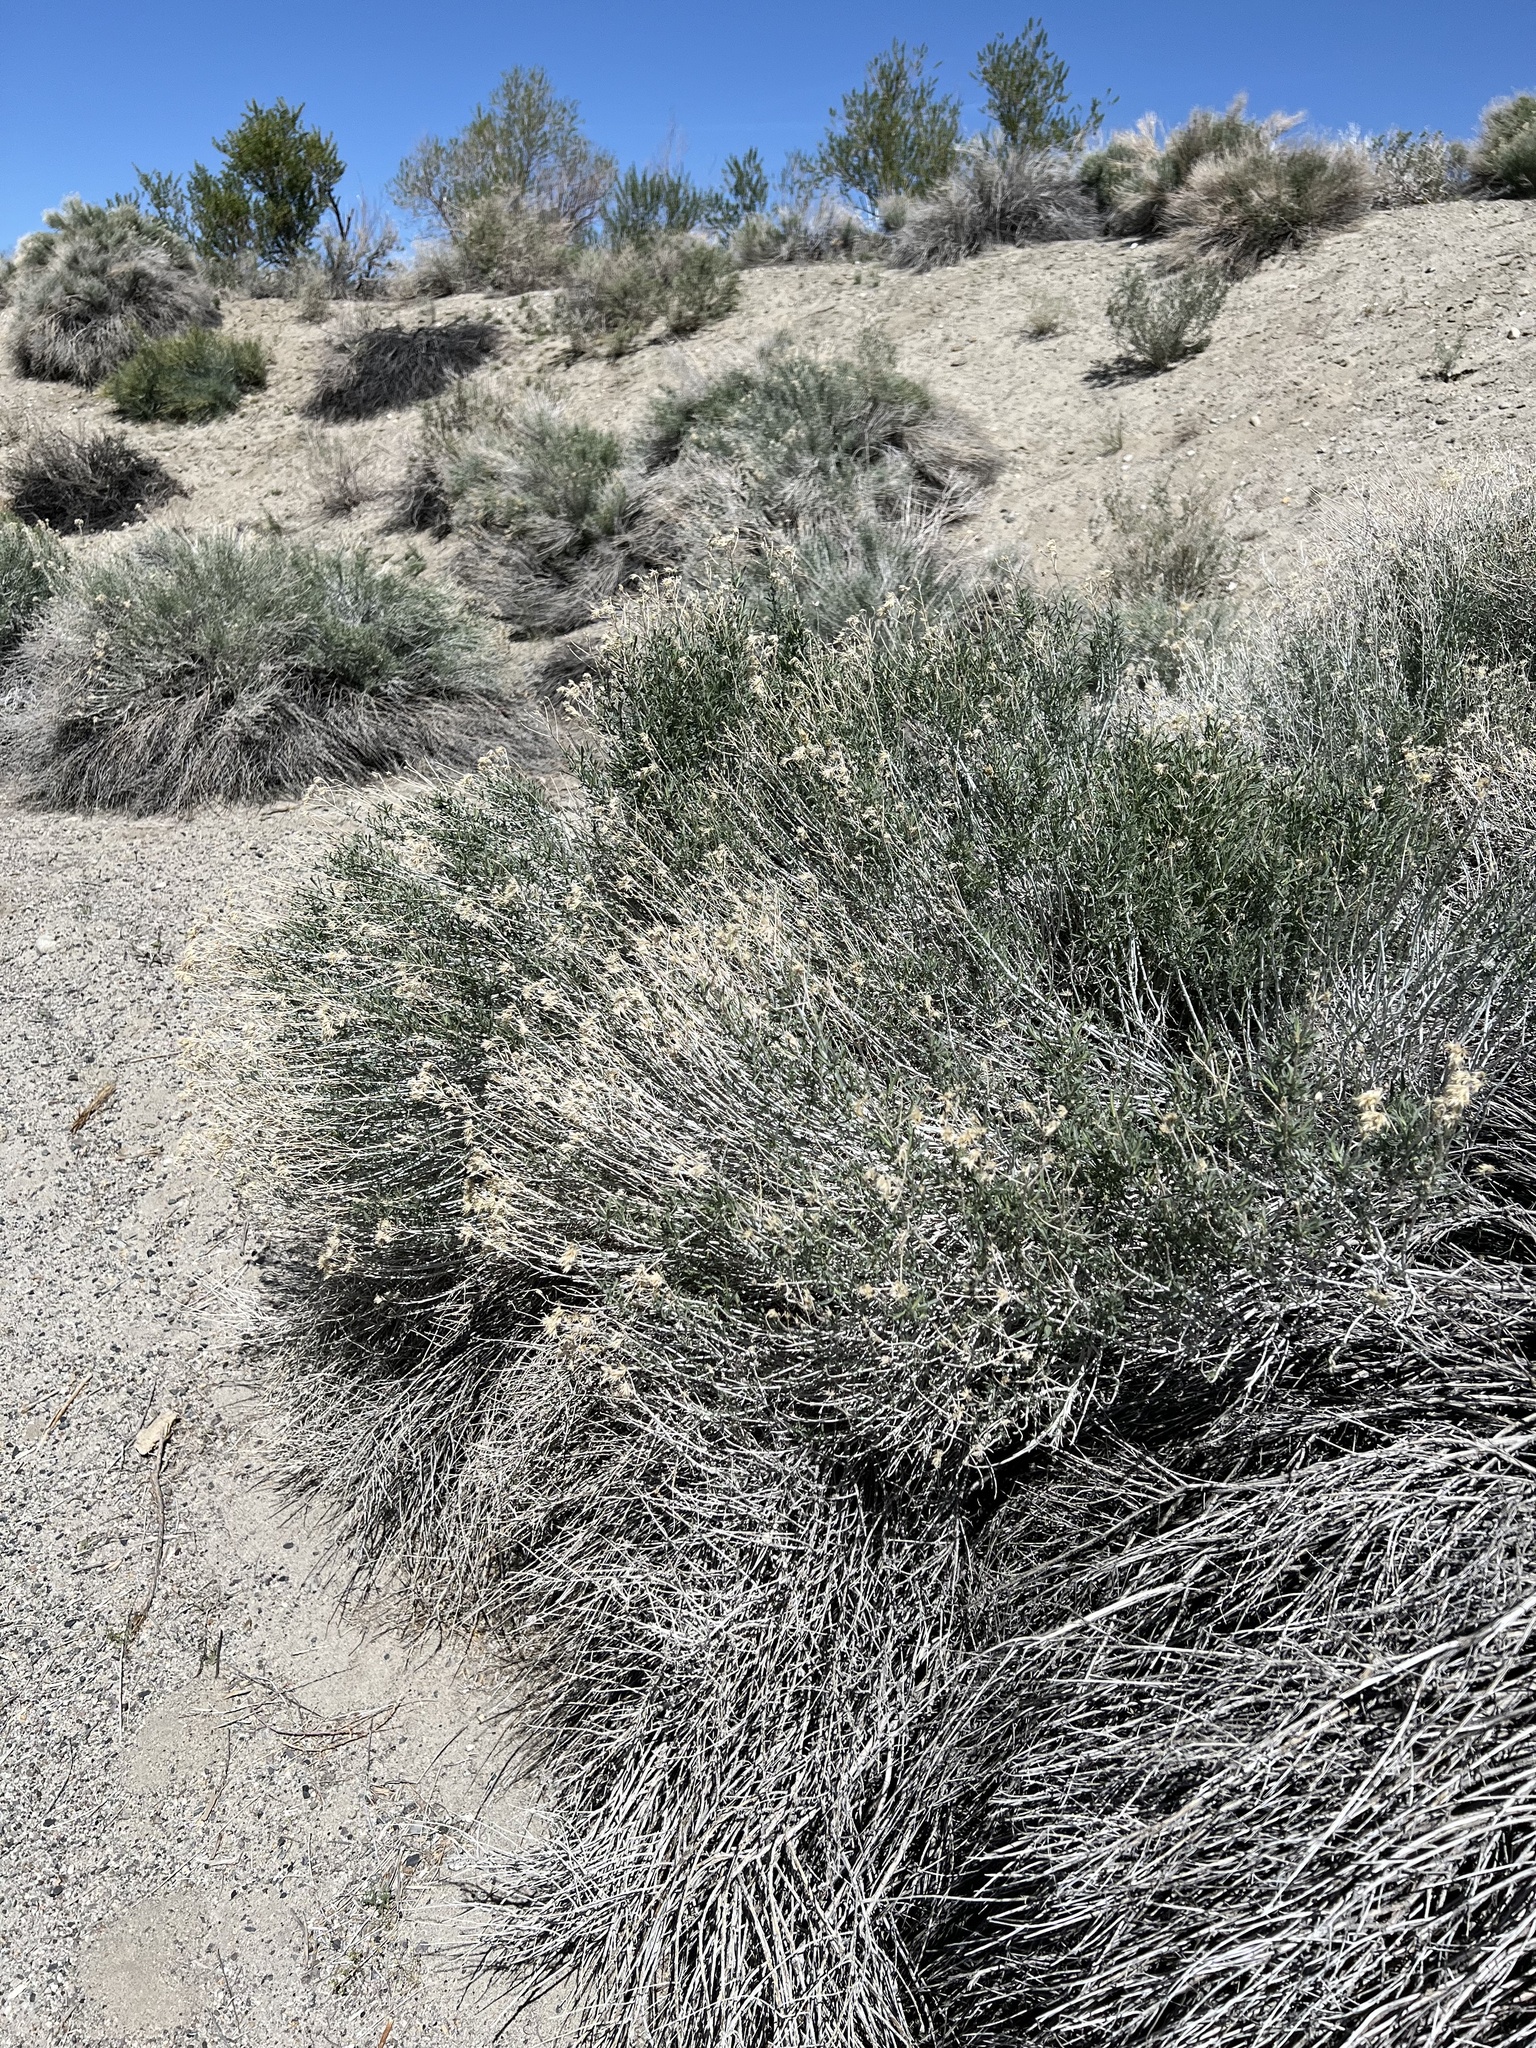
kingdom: Plantae
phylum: Tracheophyta
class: Magnoliopsida
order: Asterales
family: Asteraceae
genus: Ericameria
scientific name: Ericameria nauseosa
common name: Rubber rabbitbrush
